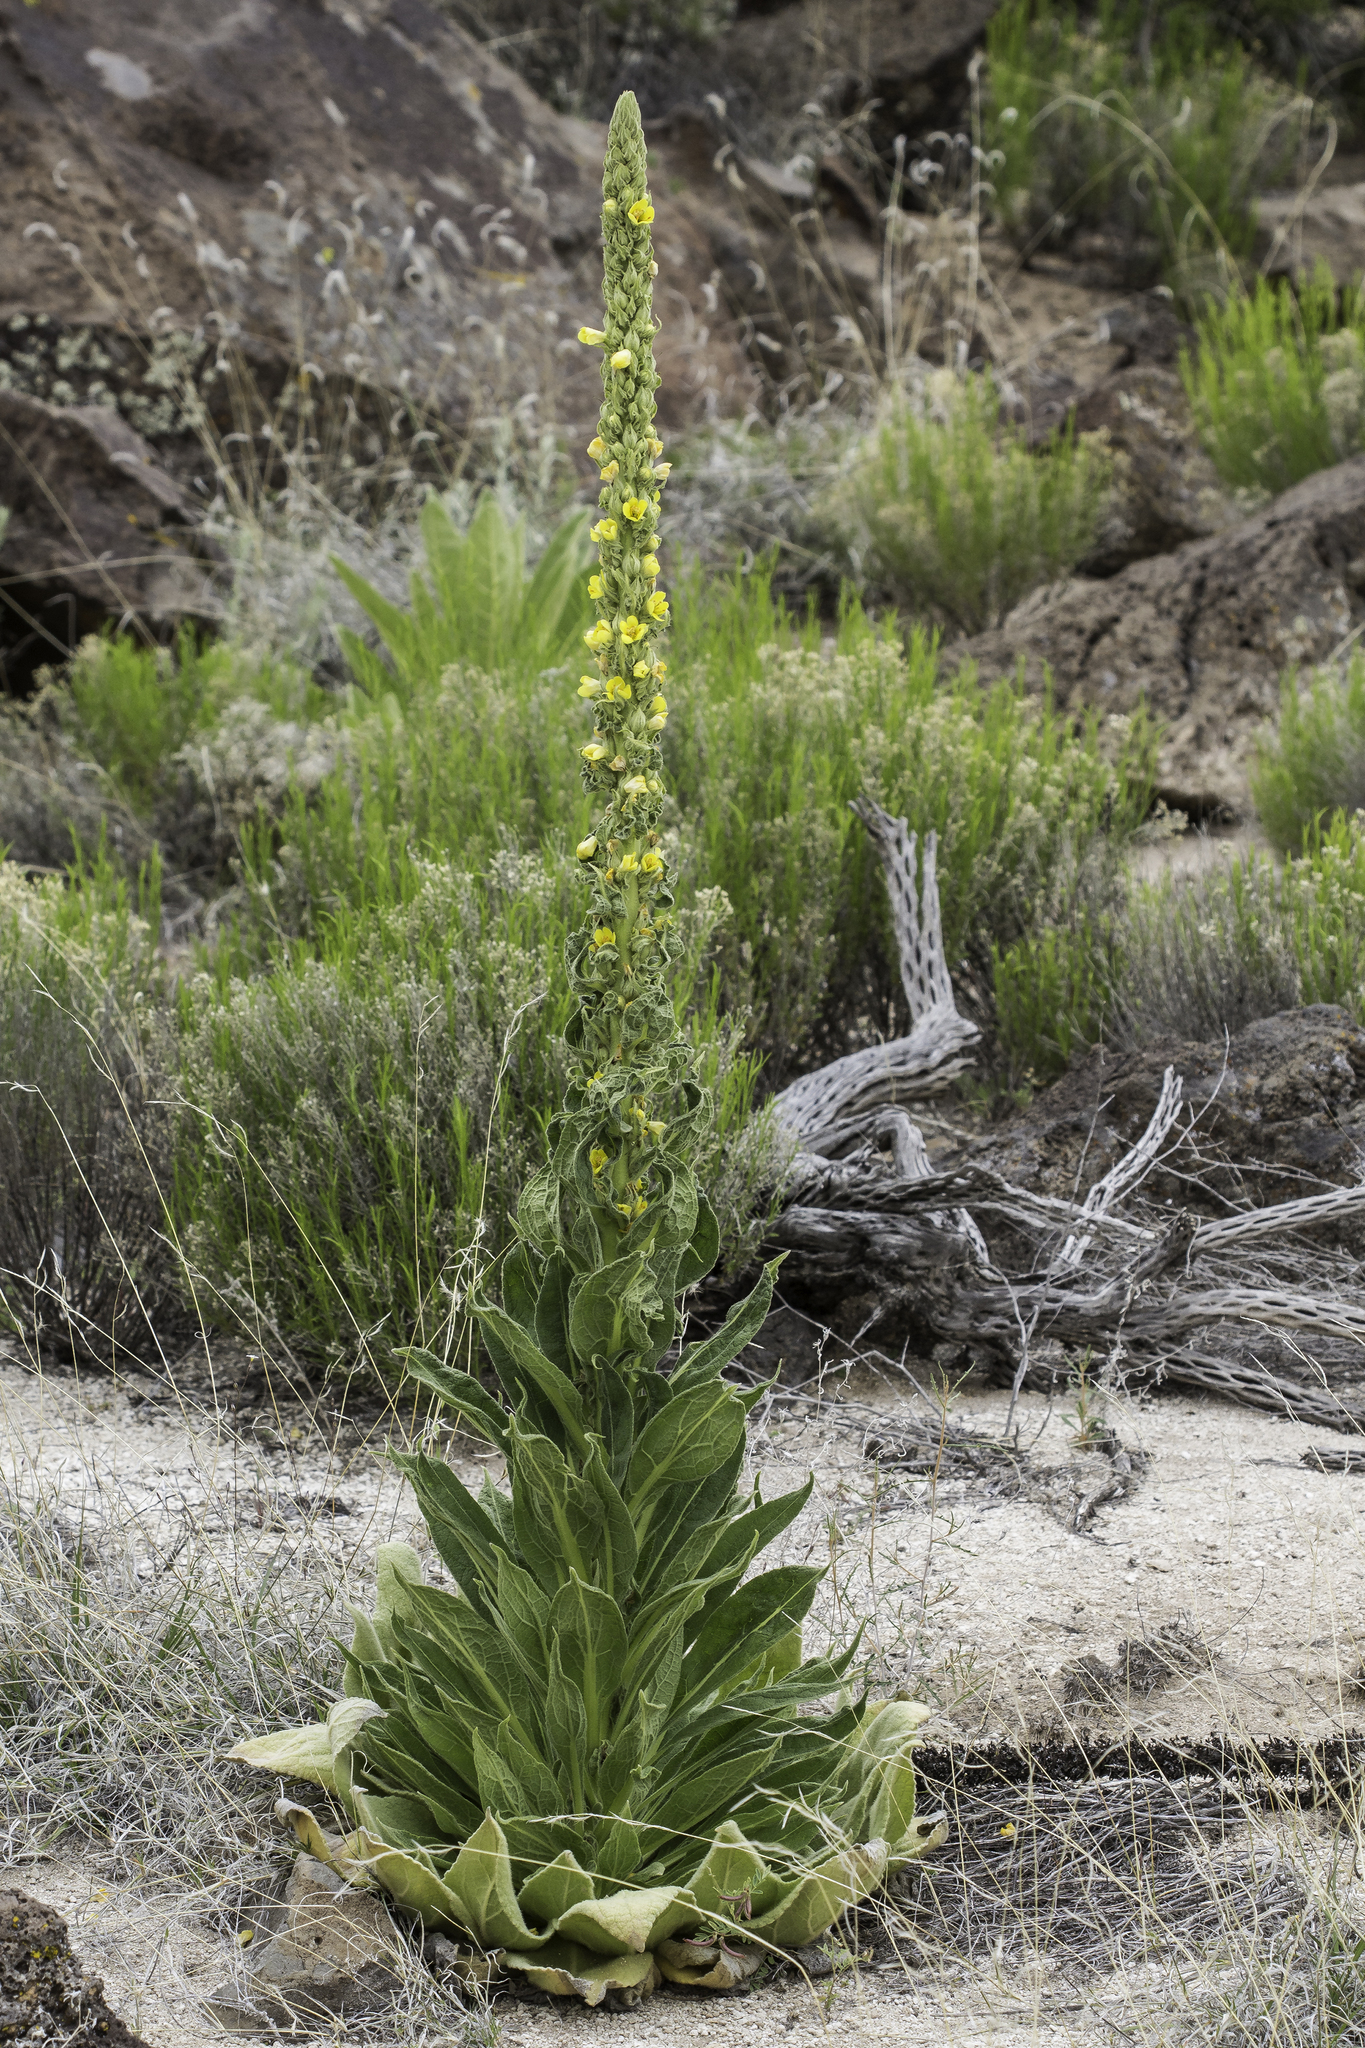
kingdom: Plantae
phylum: Tracheophyta
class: Magnoliopsida
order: Lamiales
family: Scrophulariaceae
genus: Verbascum
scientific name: Verbascum thapsus
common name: Common mullein
